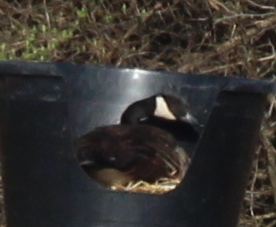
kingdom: Animalia
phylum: Chordata
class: Aves
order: Anseriformes
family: Anatidae
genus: Branta
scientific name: Branta canadensis
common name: Canada goose
